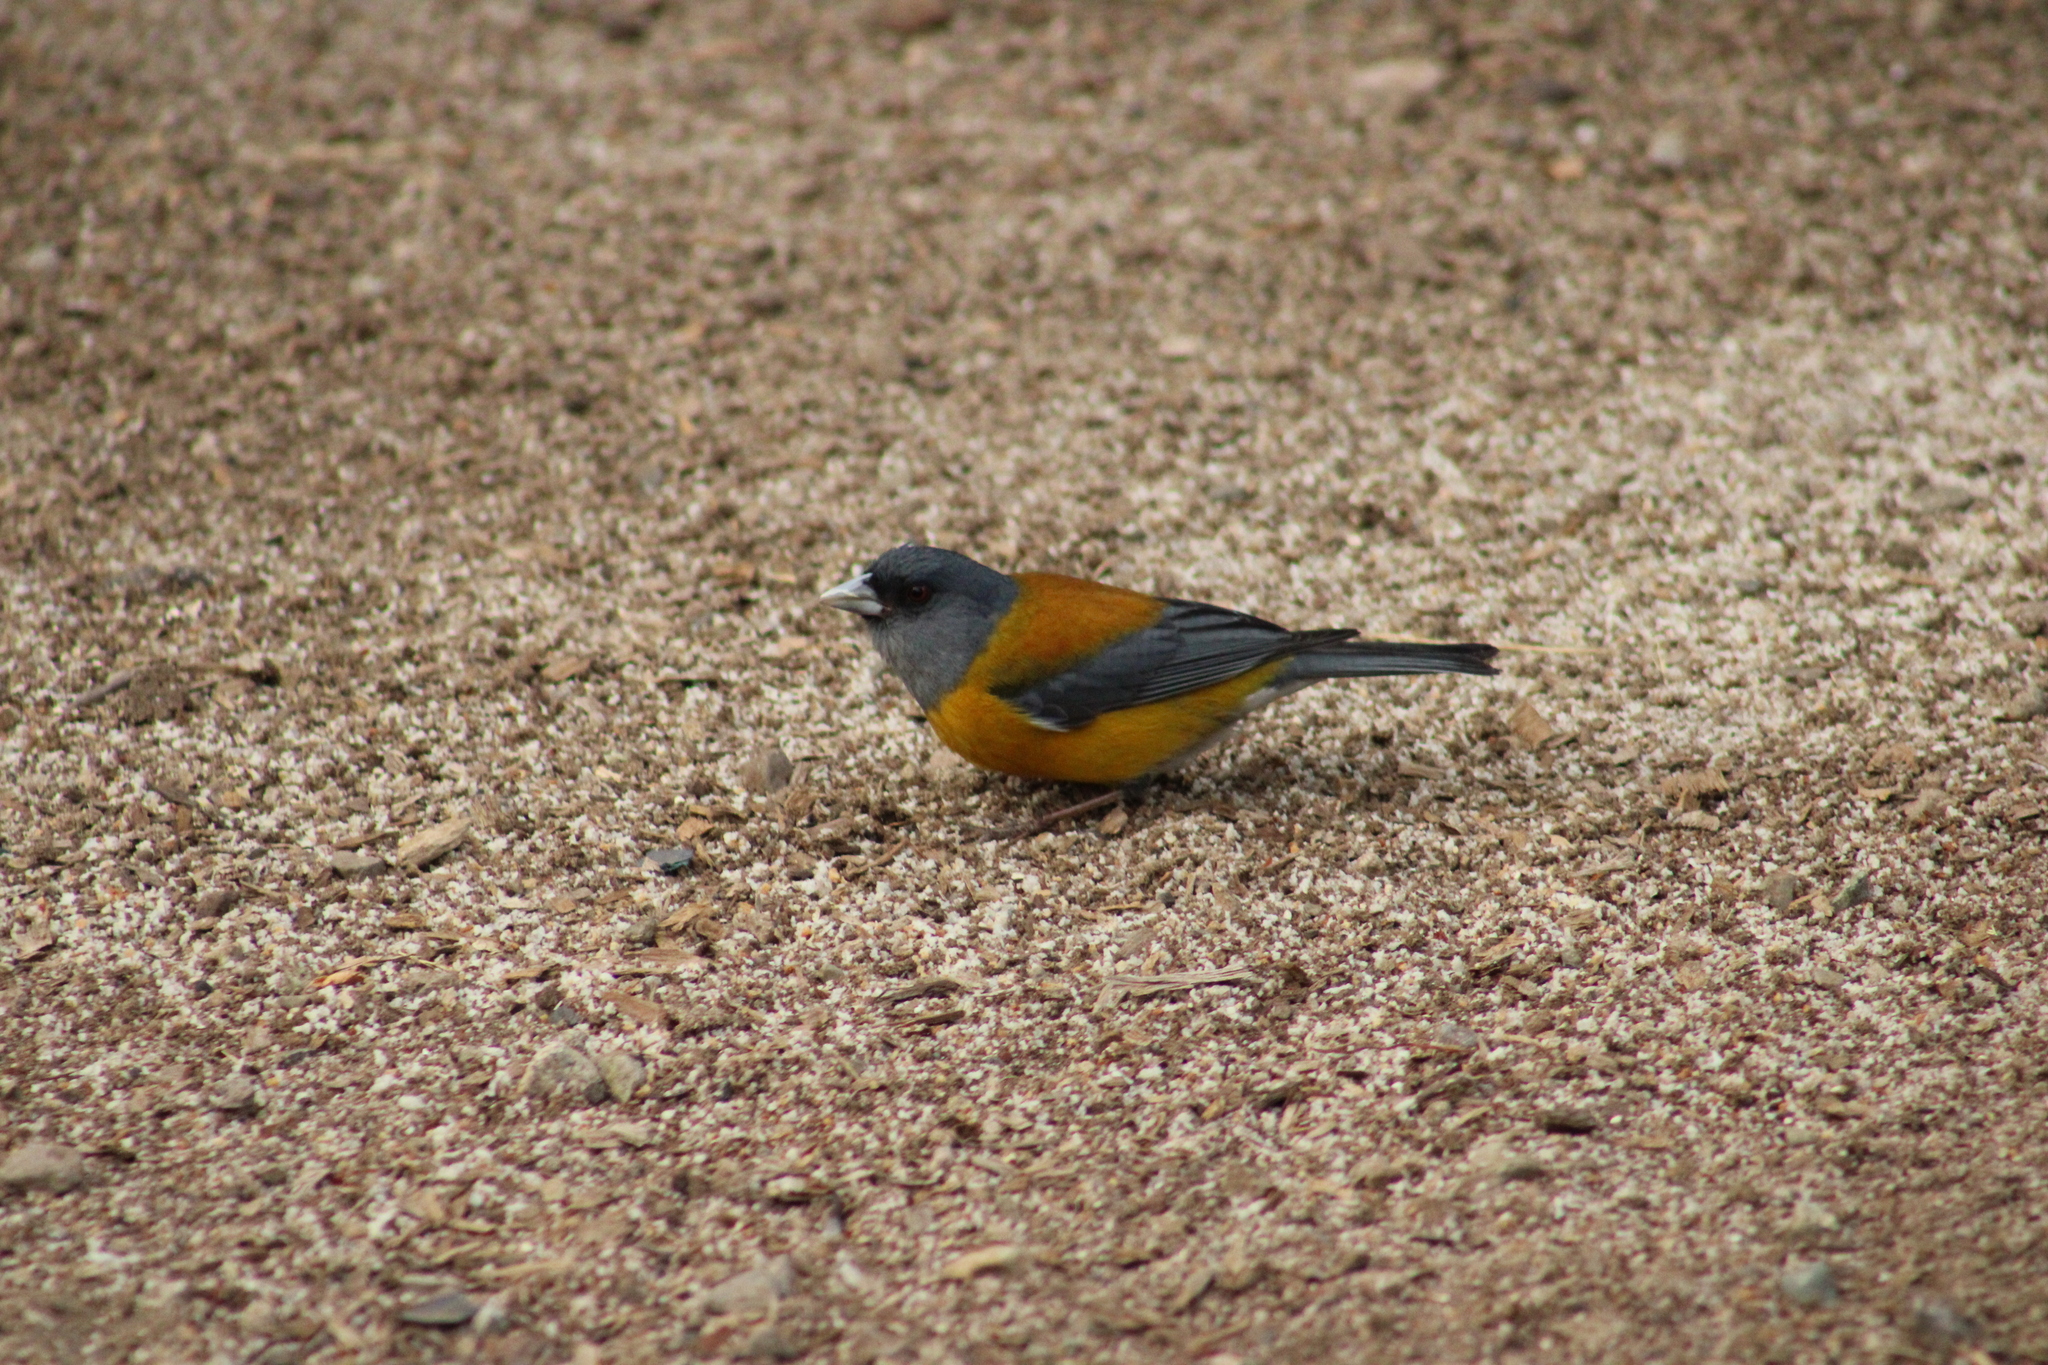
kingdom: Animalia
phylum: Chordata
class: Aves
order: Passeriformes
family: Thraupidae
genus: Phrygilus
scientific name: Phrygilus patagonicus
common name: Patagonian sierra finch
